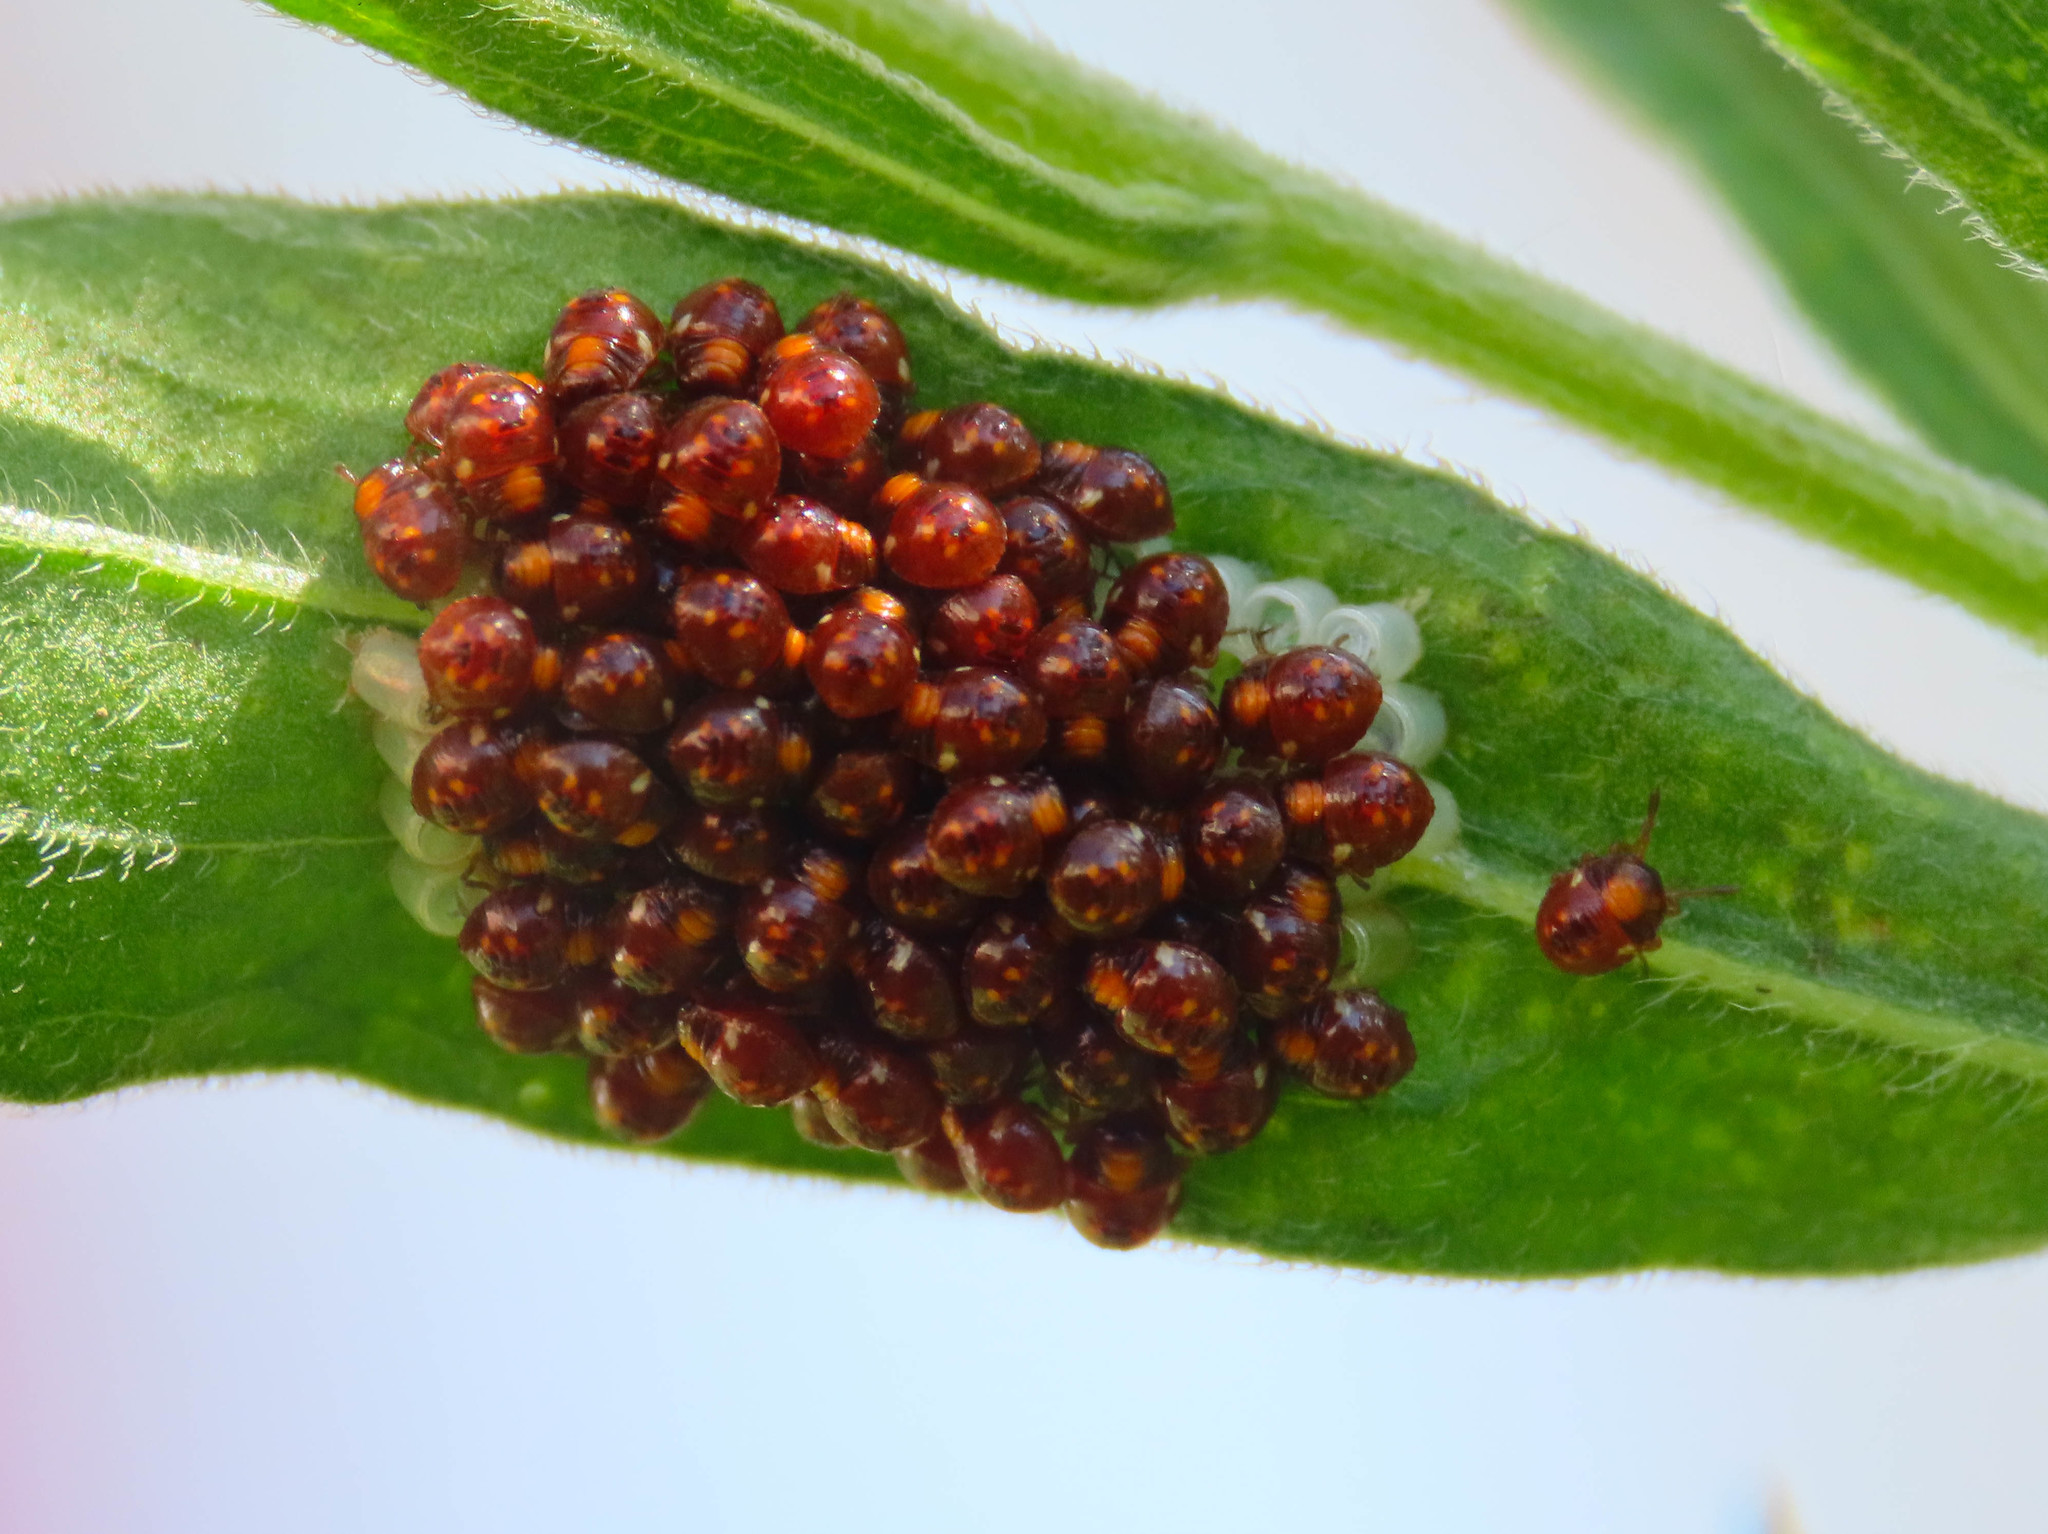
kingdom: Animalia
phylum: Arthropoda
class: Insecta
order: Hemiptera
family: Pentatomidae
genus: Nezara
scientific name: Nezara viridula
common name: Southern green stink bug
